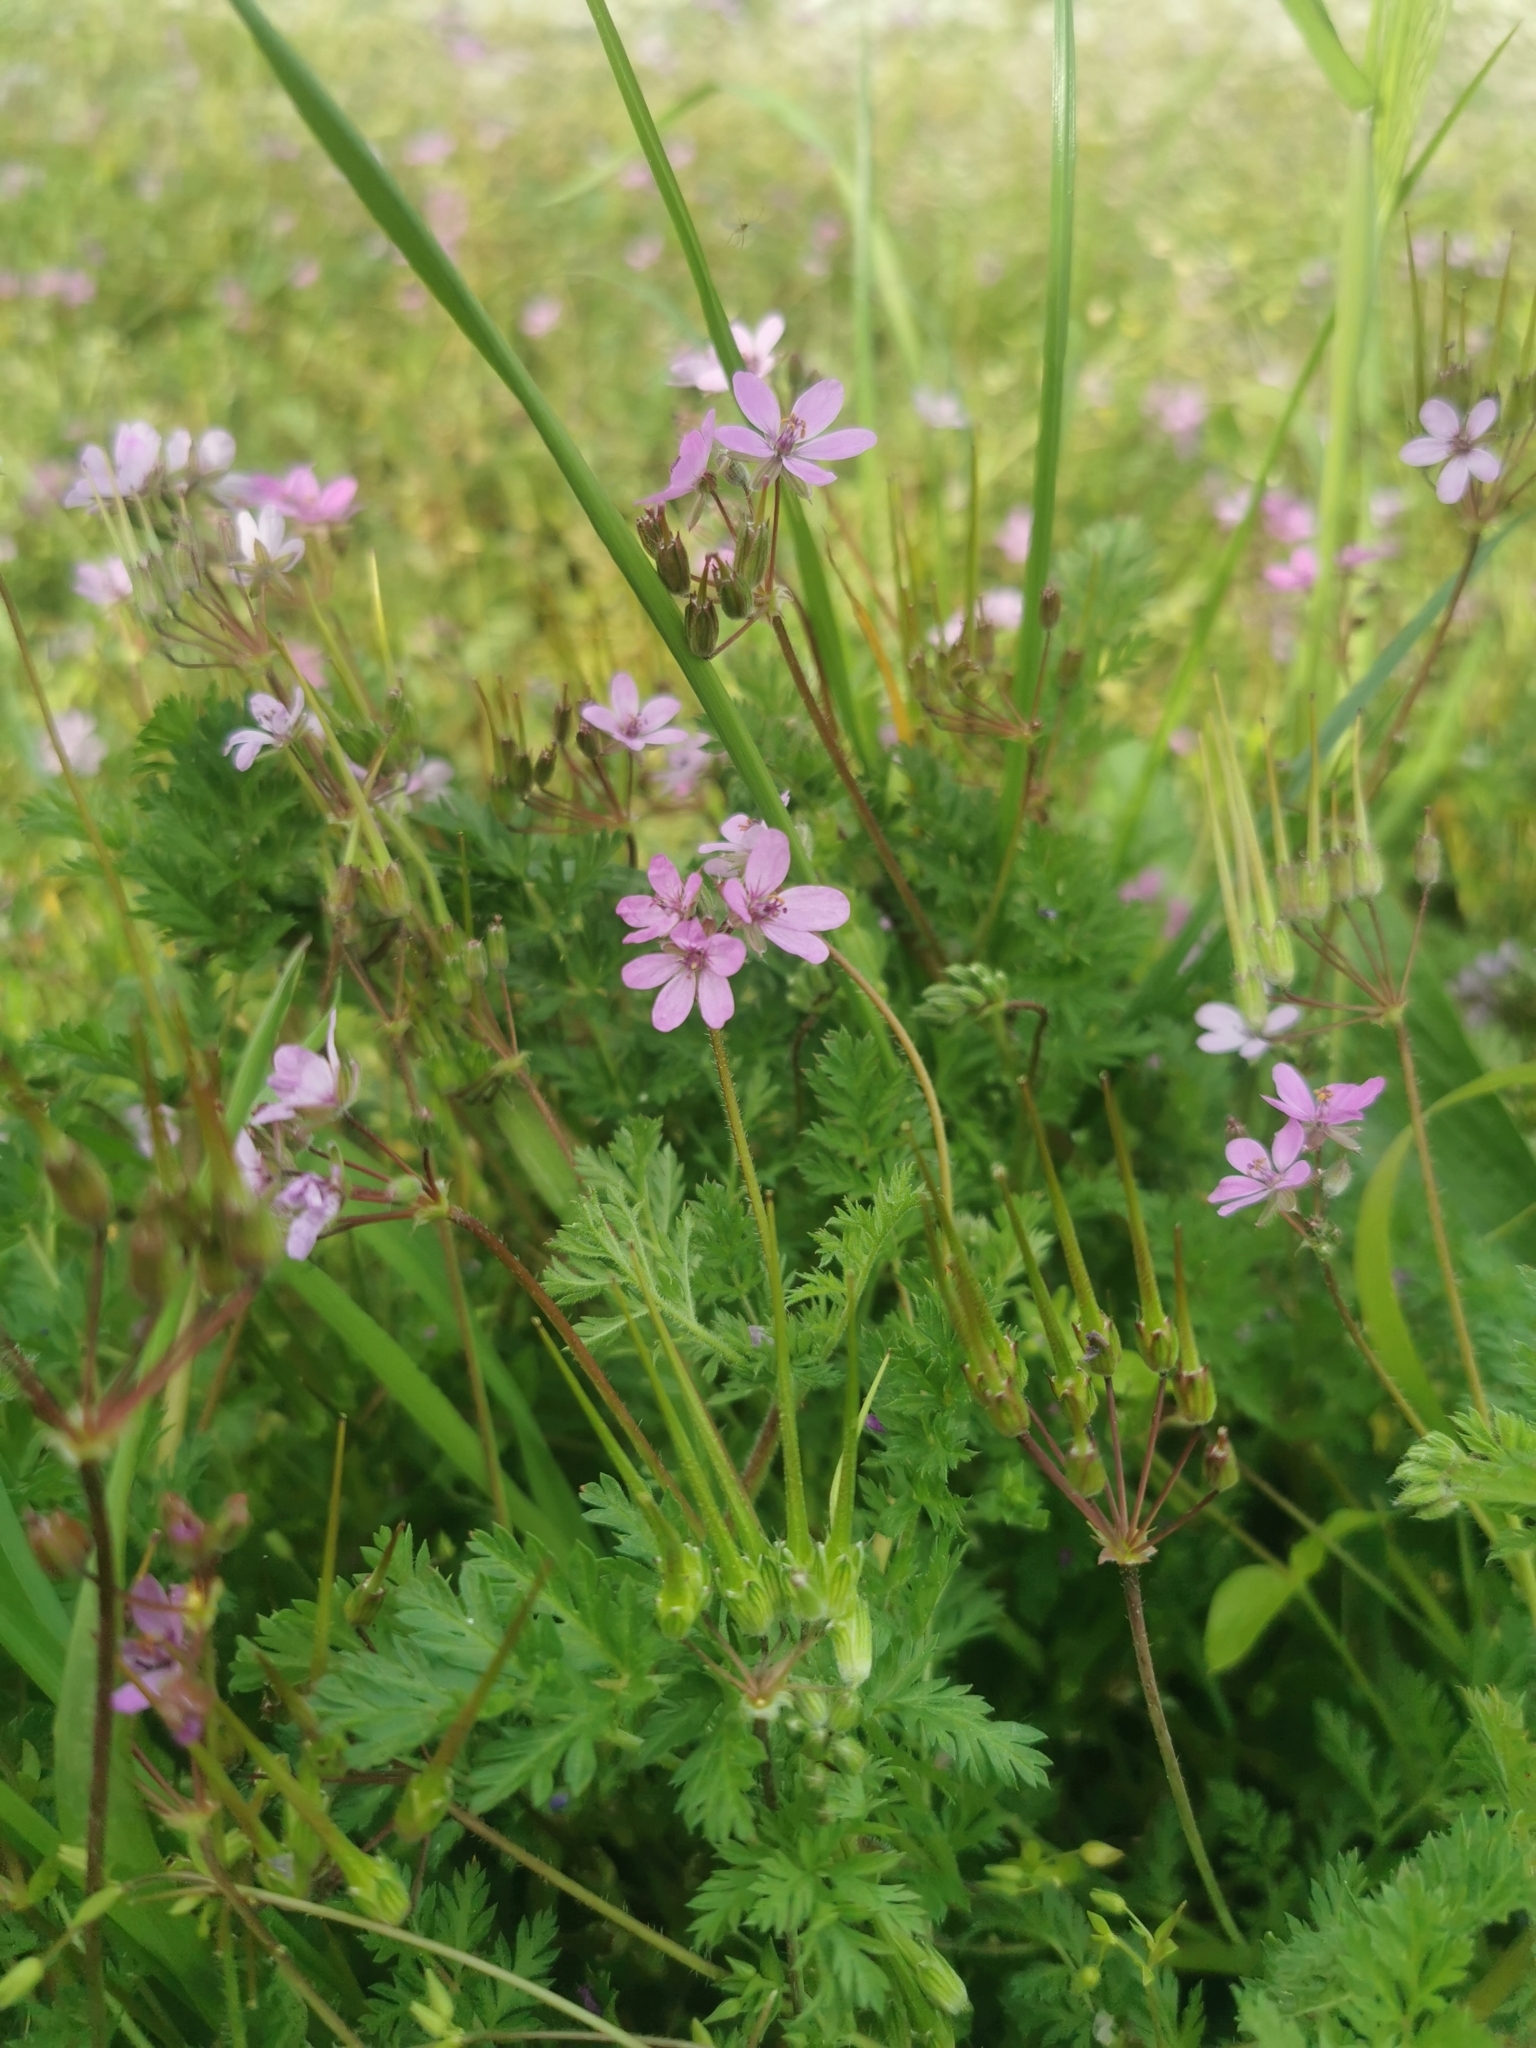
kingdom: Plantae
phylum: Tracheophyta
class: Magnoliopsida
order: Geraniales
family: Geraniaceae
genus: Erodium
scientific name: Erodium cicutarium
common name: Common stork's-bill
